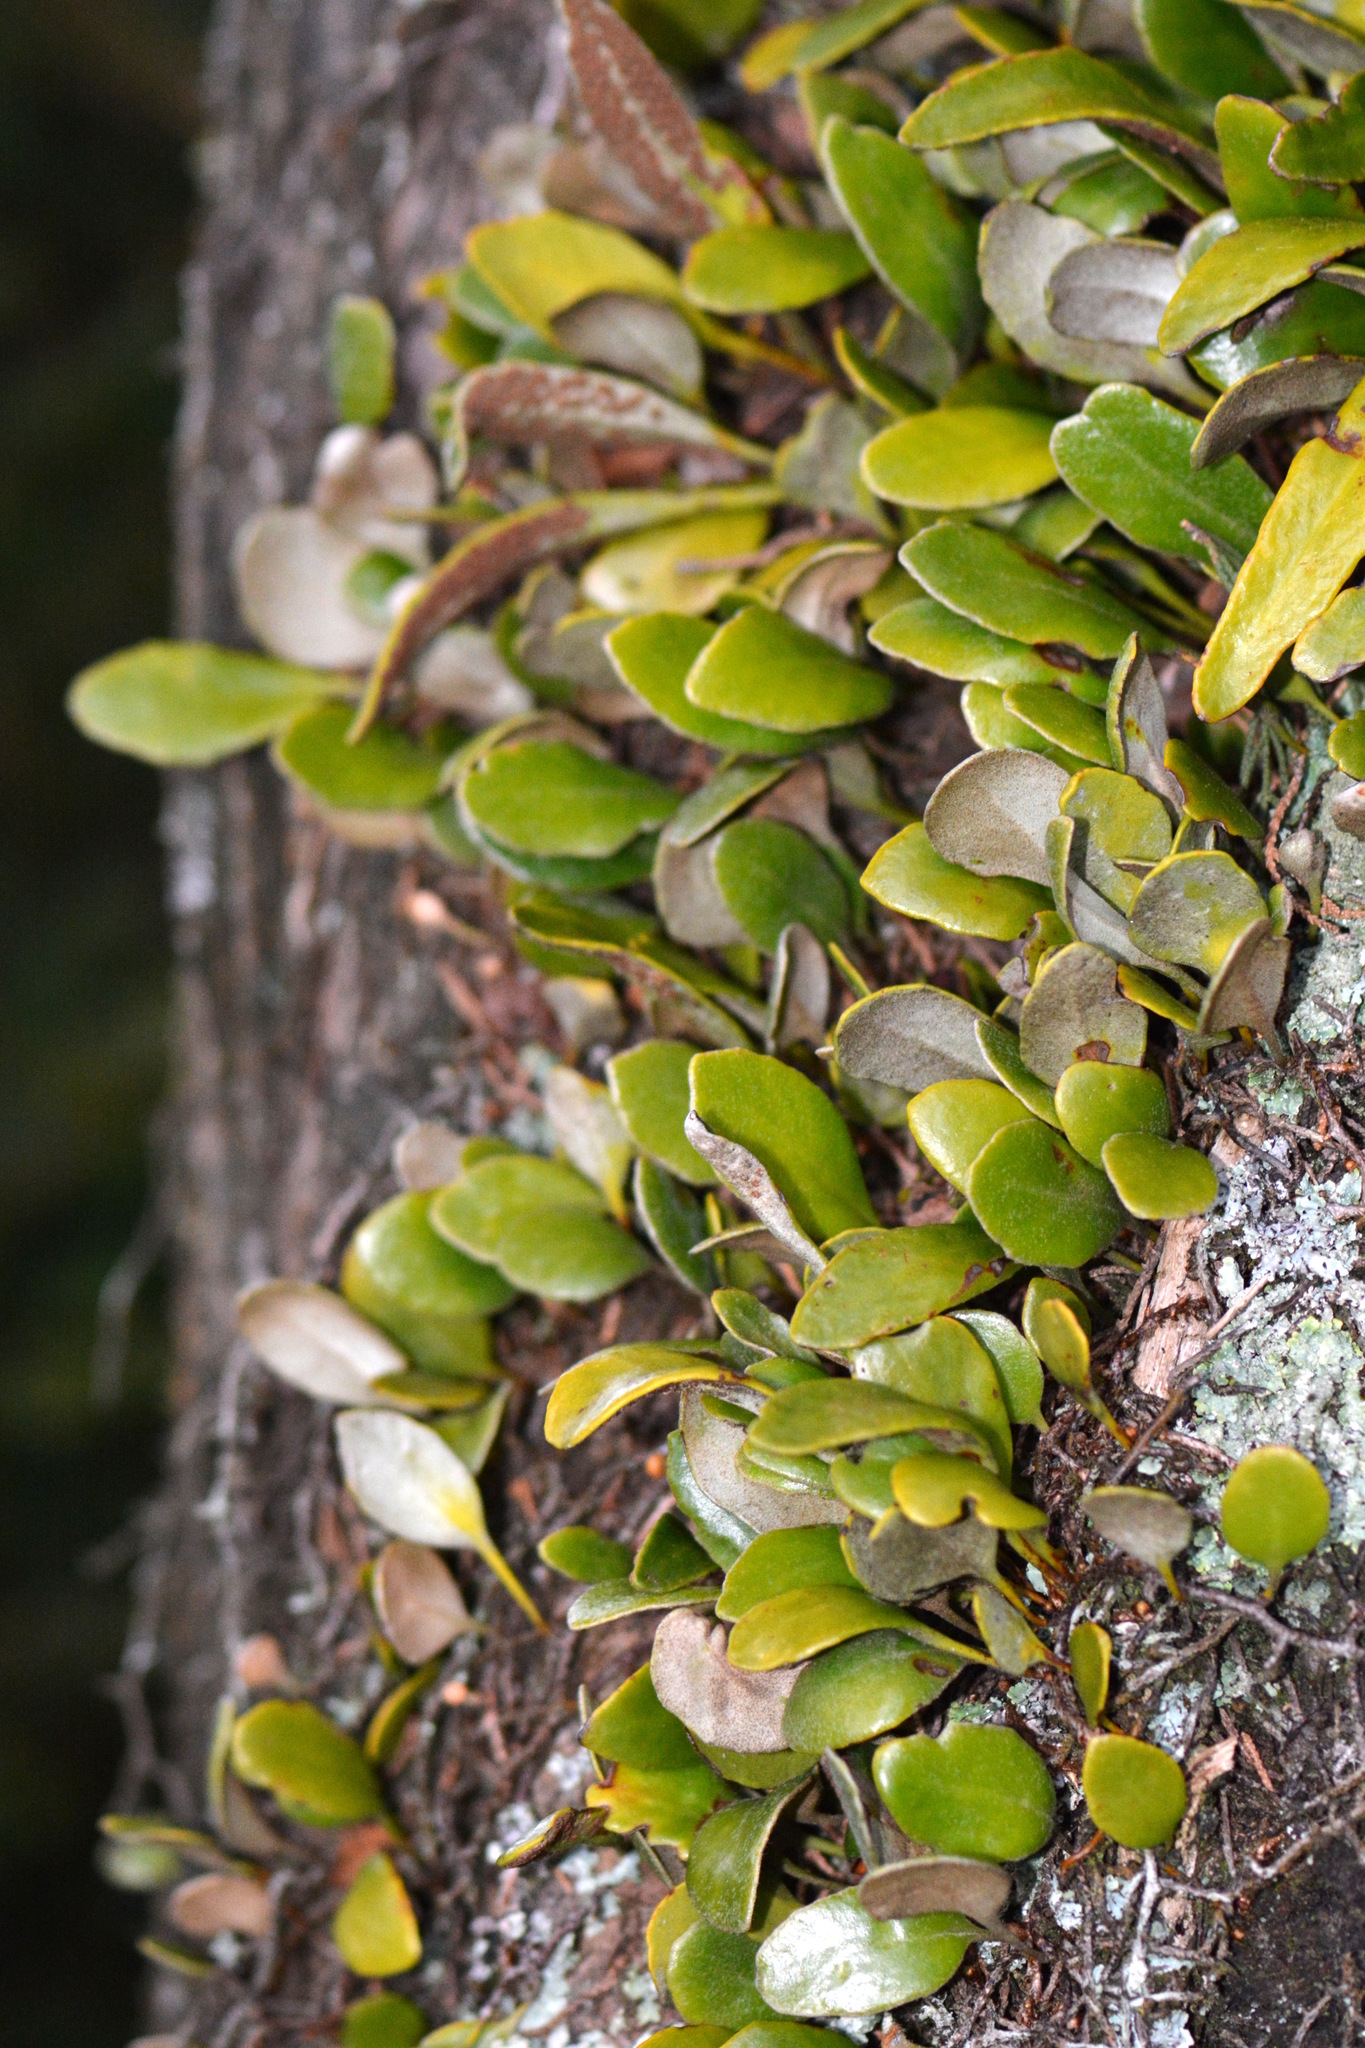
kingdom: Plantae
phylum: Tracheophyta
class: Polypodiopsida
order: Polypodiales
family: Polypodiaceae
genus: Pyrrosia
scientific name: Pyrrosia eleagnifolia
